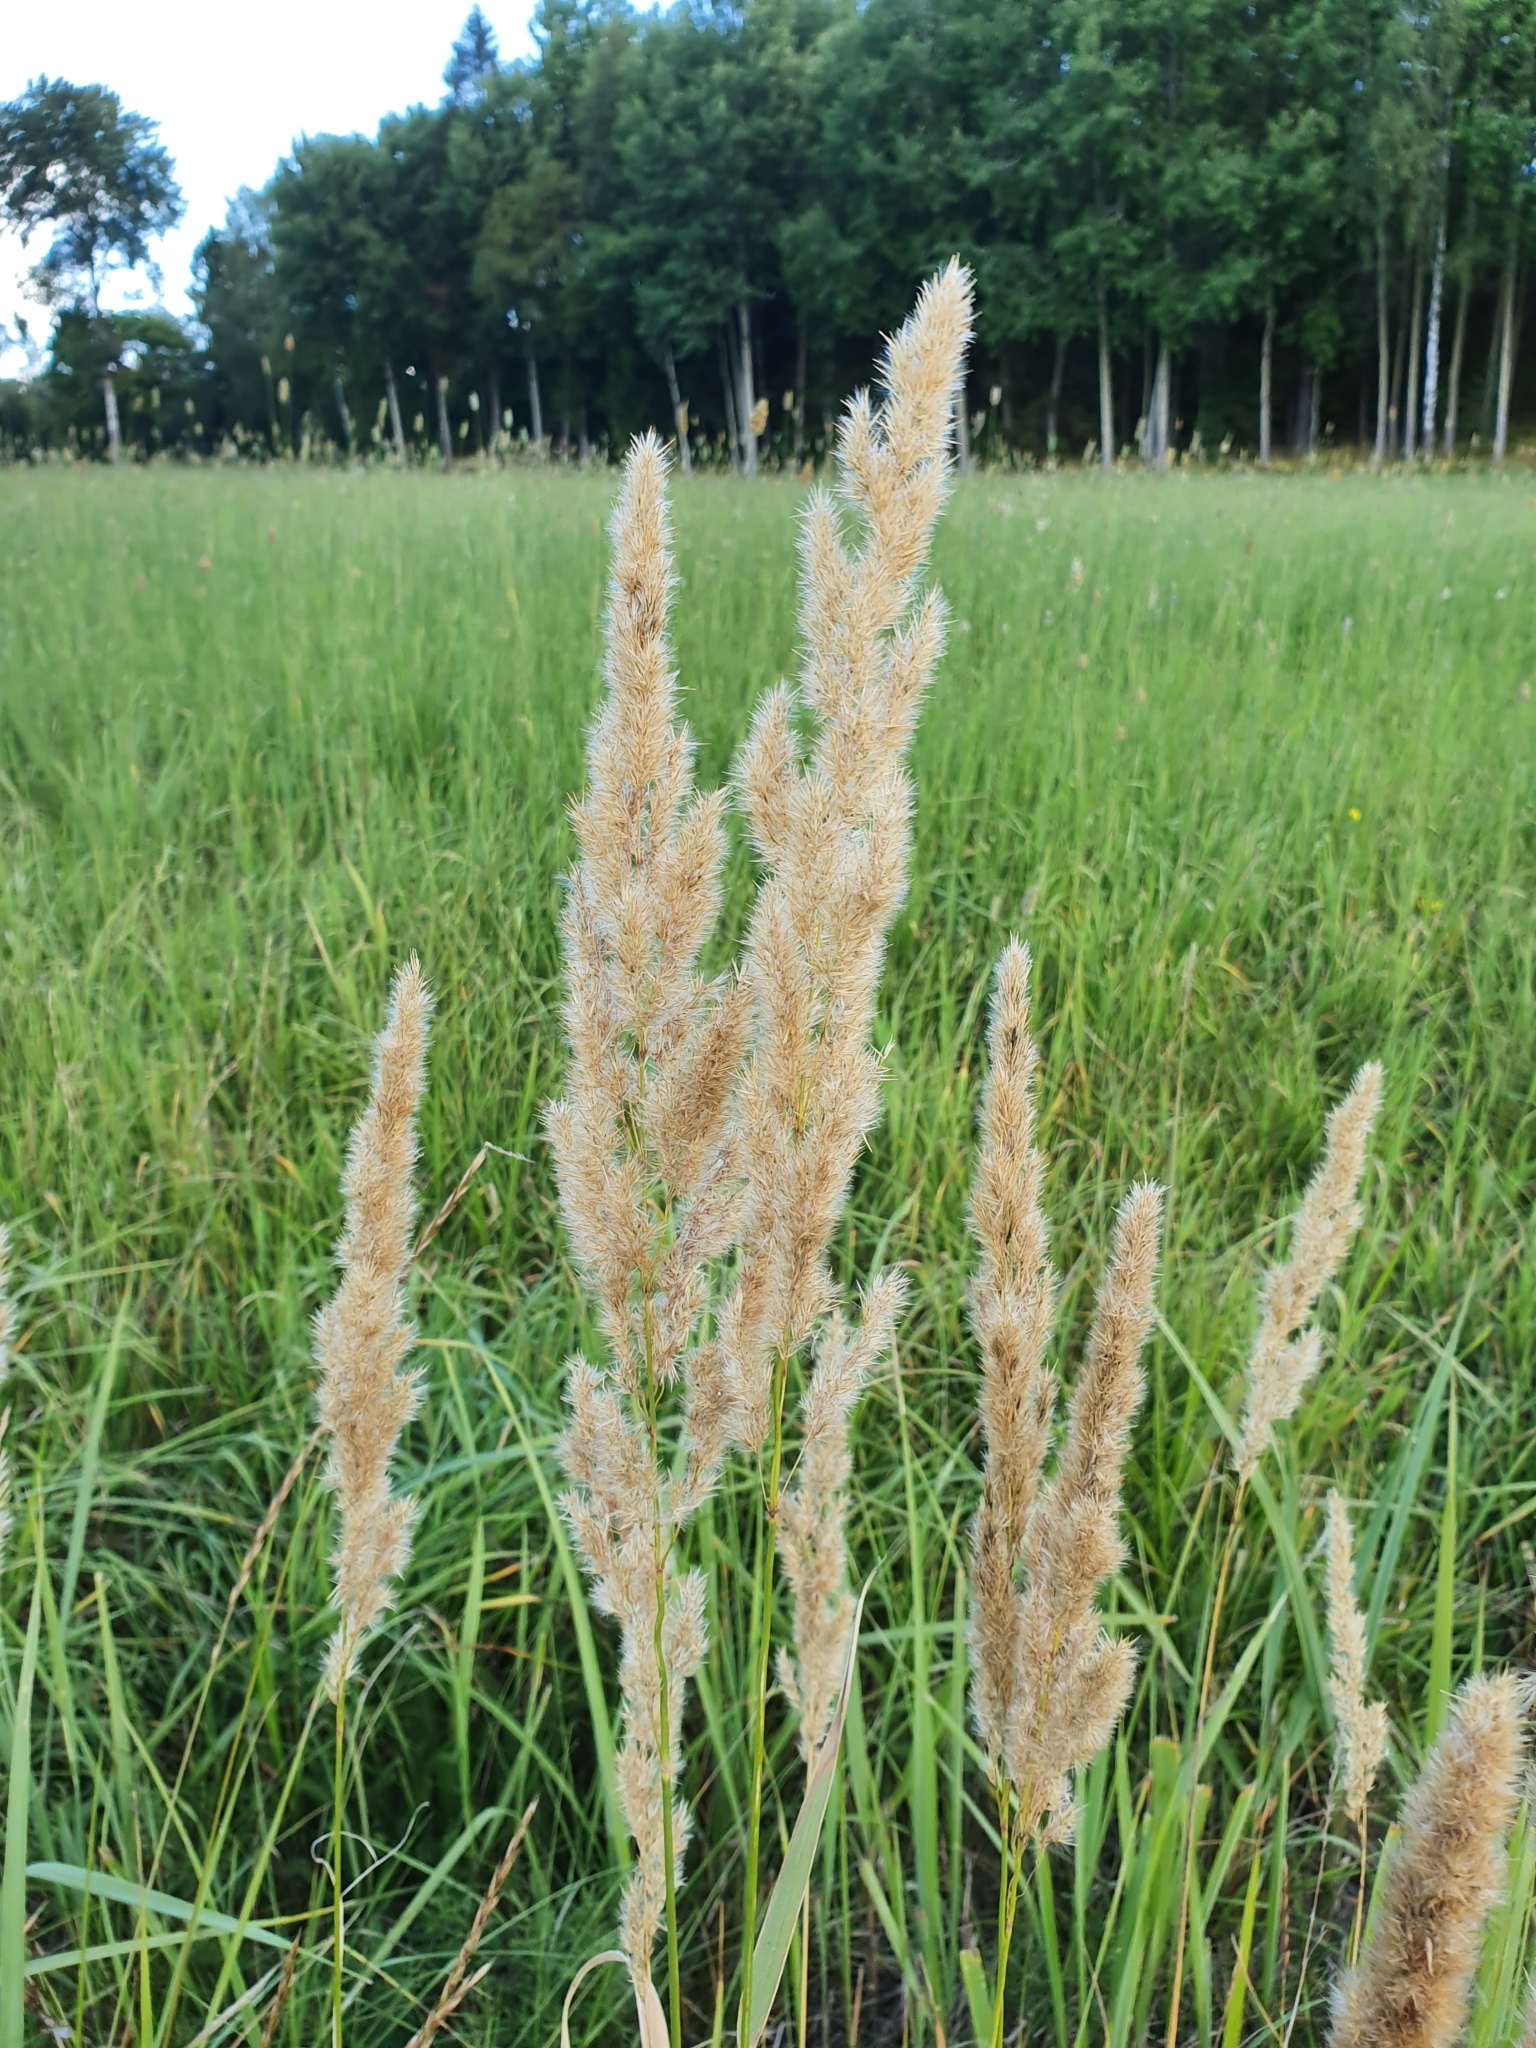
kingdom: Plantae
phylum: Tracheophyta
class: Liliopsida
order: Poales
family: Poaceae
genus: Calamagrostis
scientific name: Calamagrostis epigejos
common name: Wood small-reed
